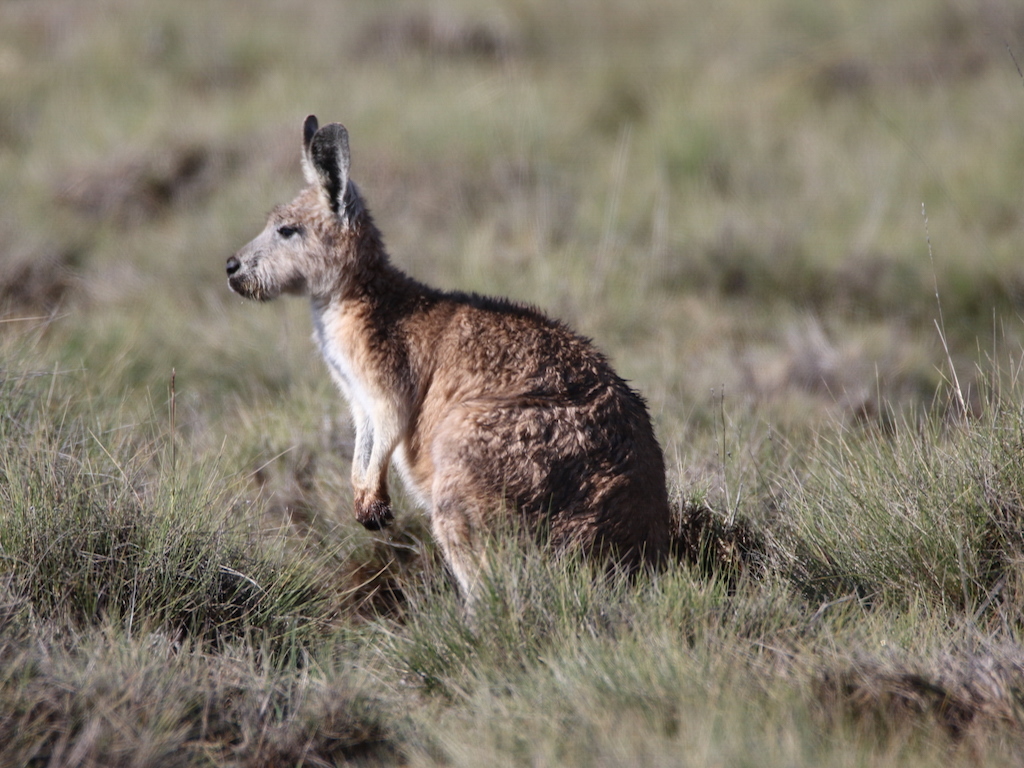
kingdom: Animalia
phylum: Chordata
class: Mammalia
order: Diprotodontia
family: Macropodidae
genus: Macropus
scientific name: Macropus robustus
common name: Eastern wallaroo
